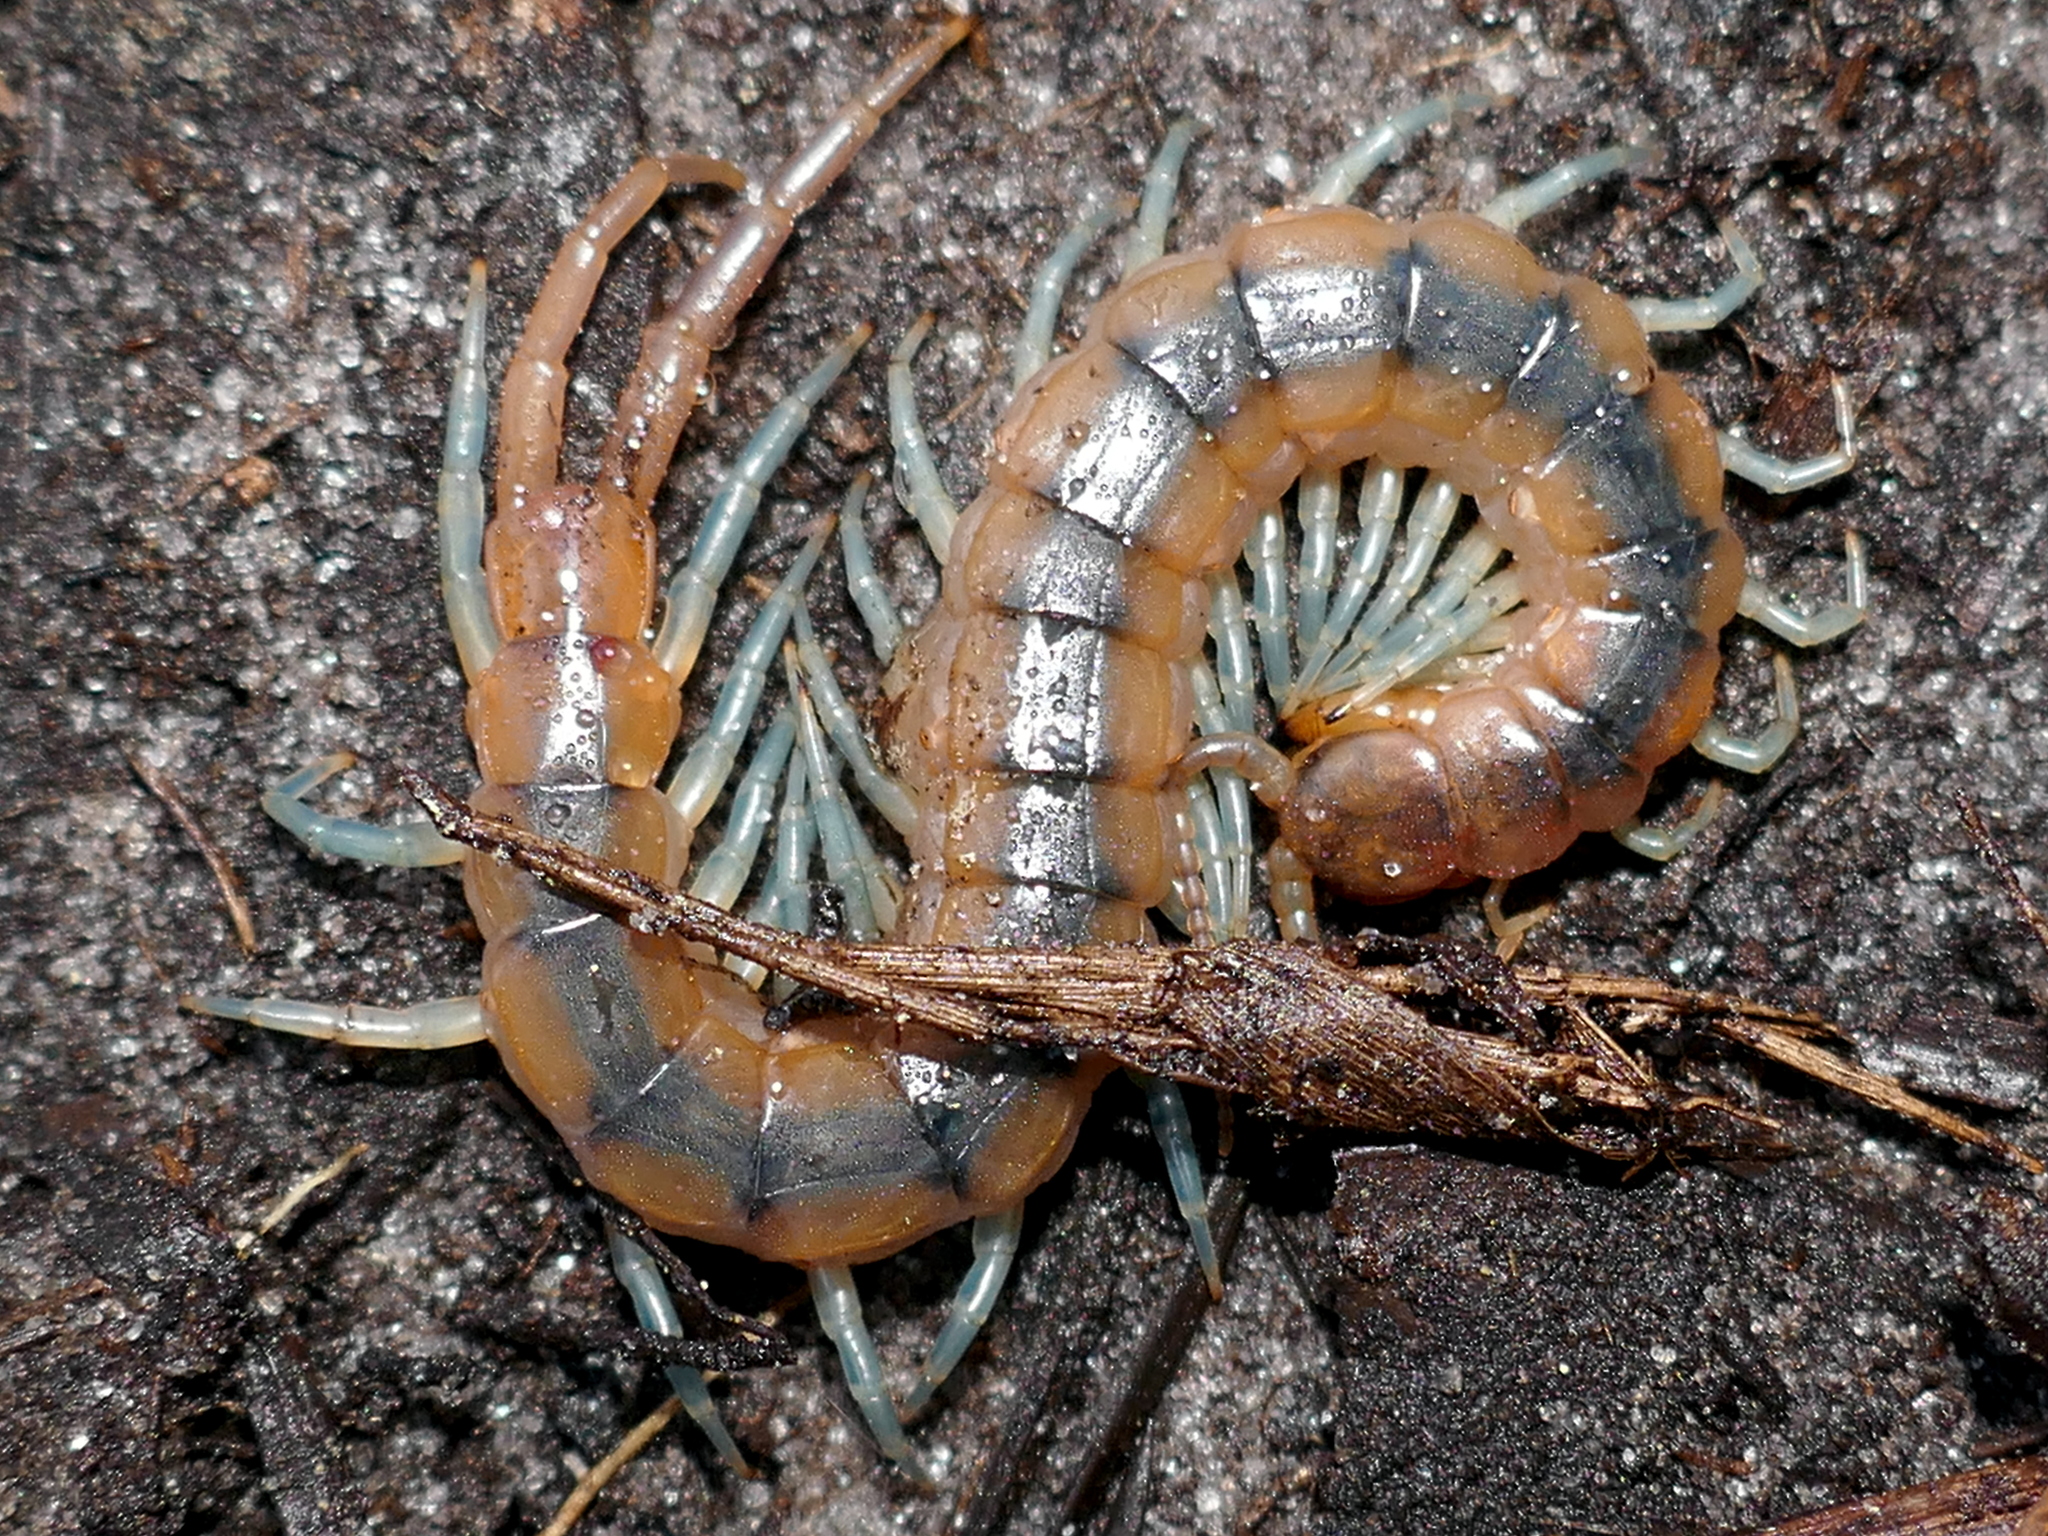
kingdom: Animalia
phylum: Arthropoda
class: Chilopoda
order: Scolopendromorpha
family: Scolopendridae
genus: Scolopendra
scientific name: Scolopendra viridis
